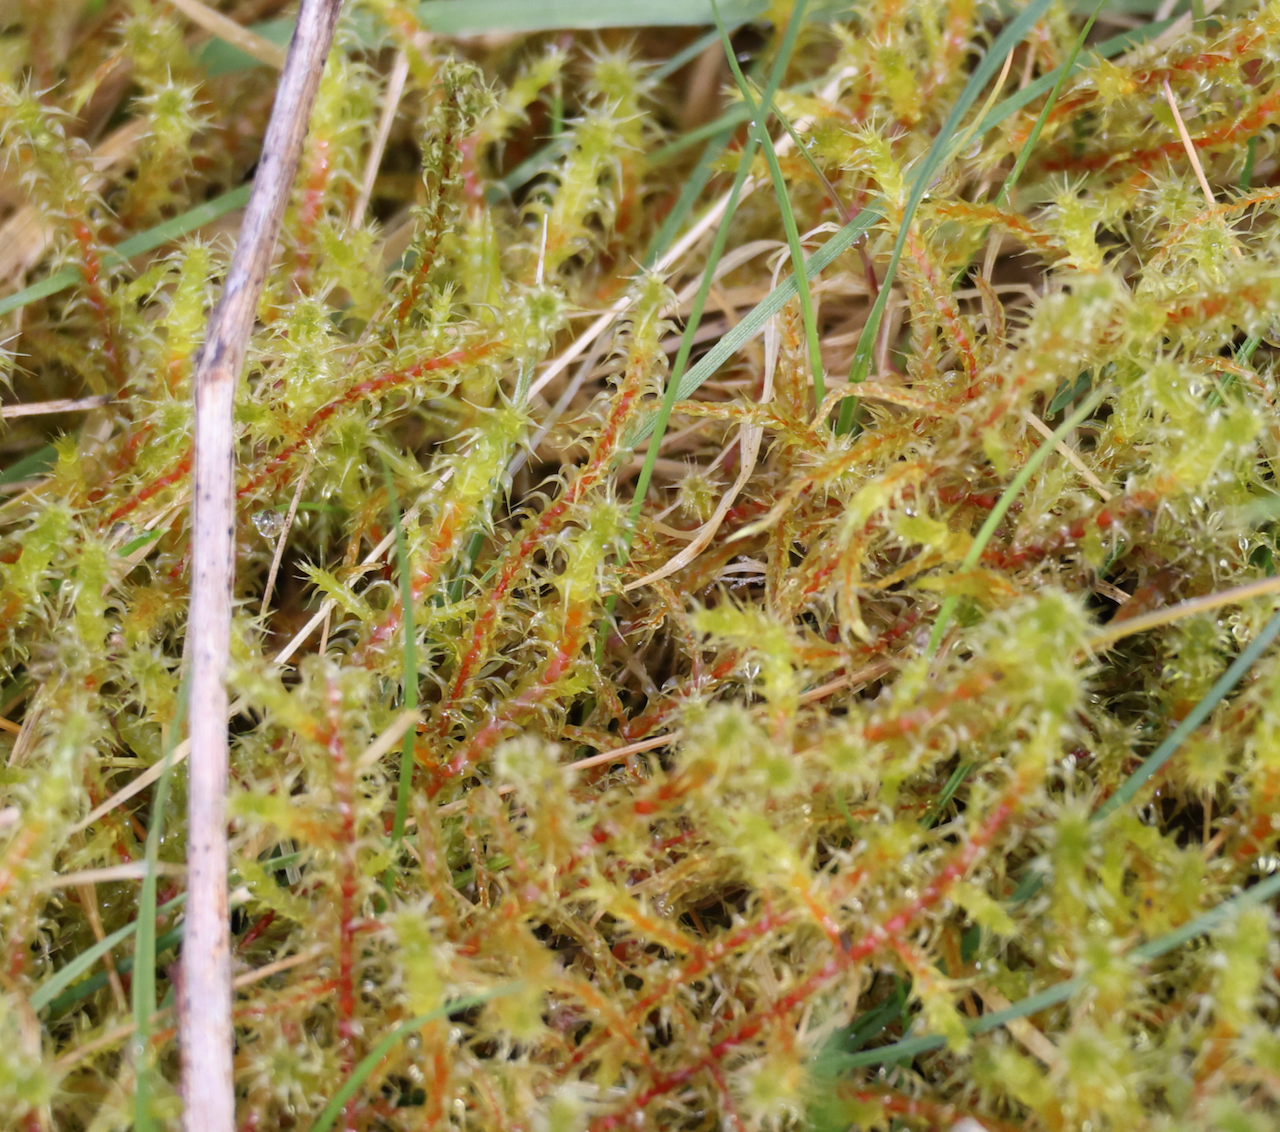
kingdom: Plantae
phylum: Bryophyta
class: Bryopsida
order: Hypnales
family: Hylocomiaceae
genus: Rhytidiadelphus
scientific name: Rhytidiadelphus squarrosus
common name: Springy turf-moss
